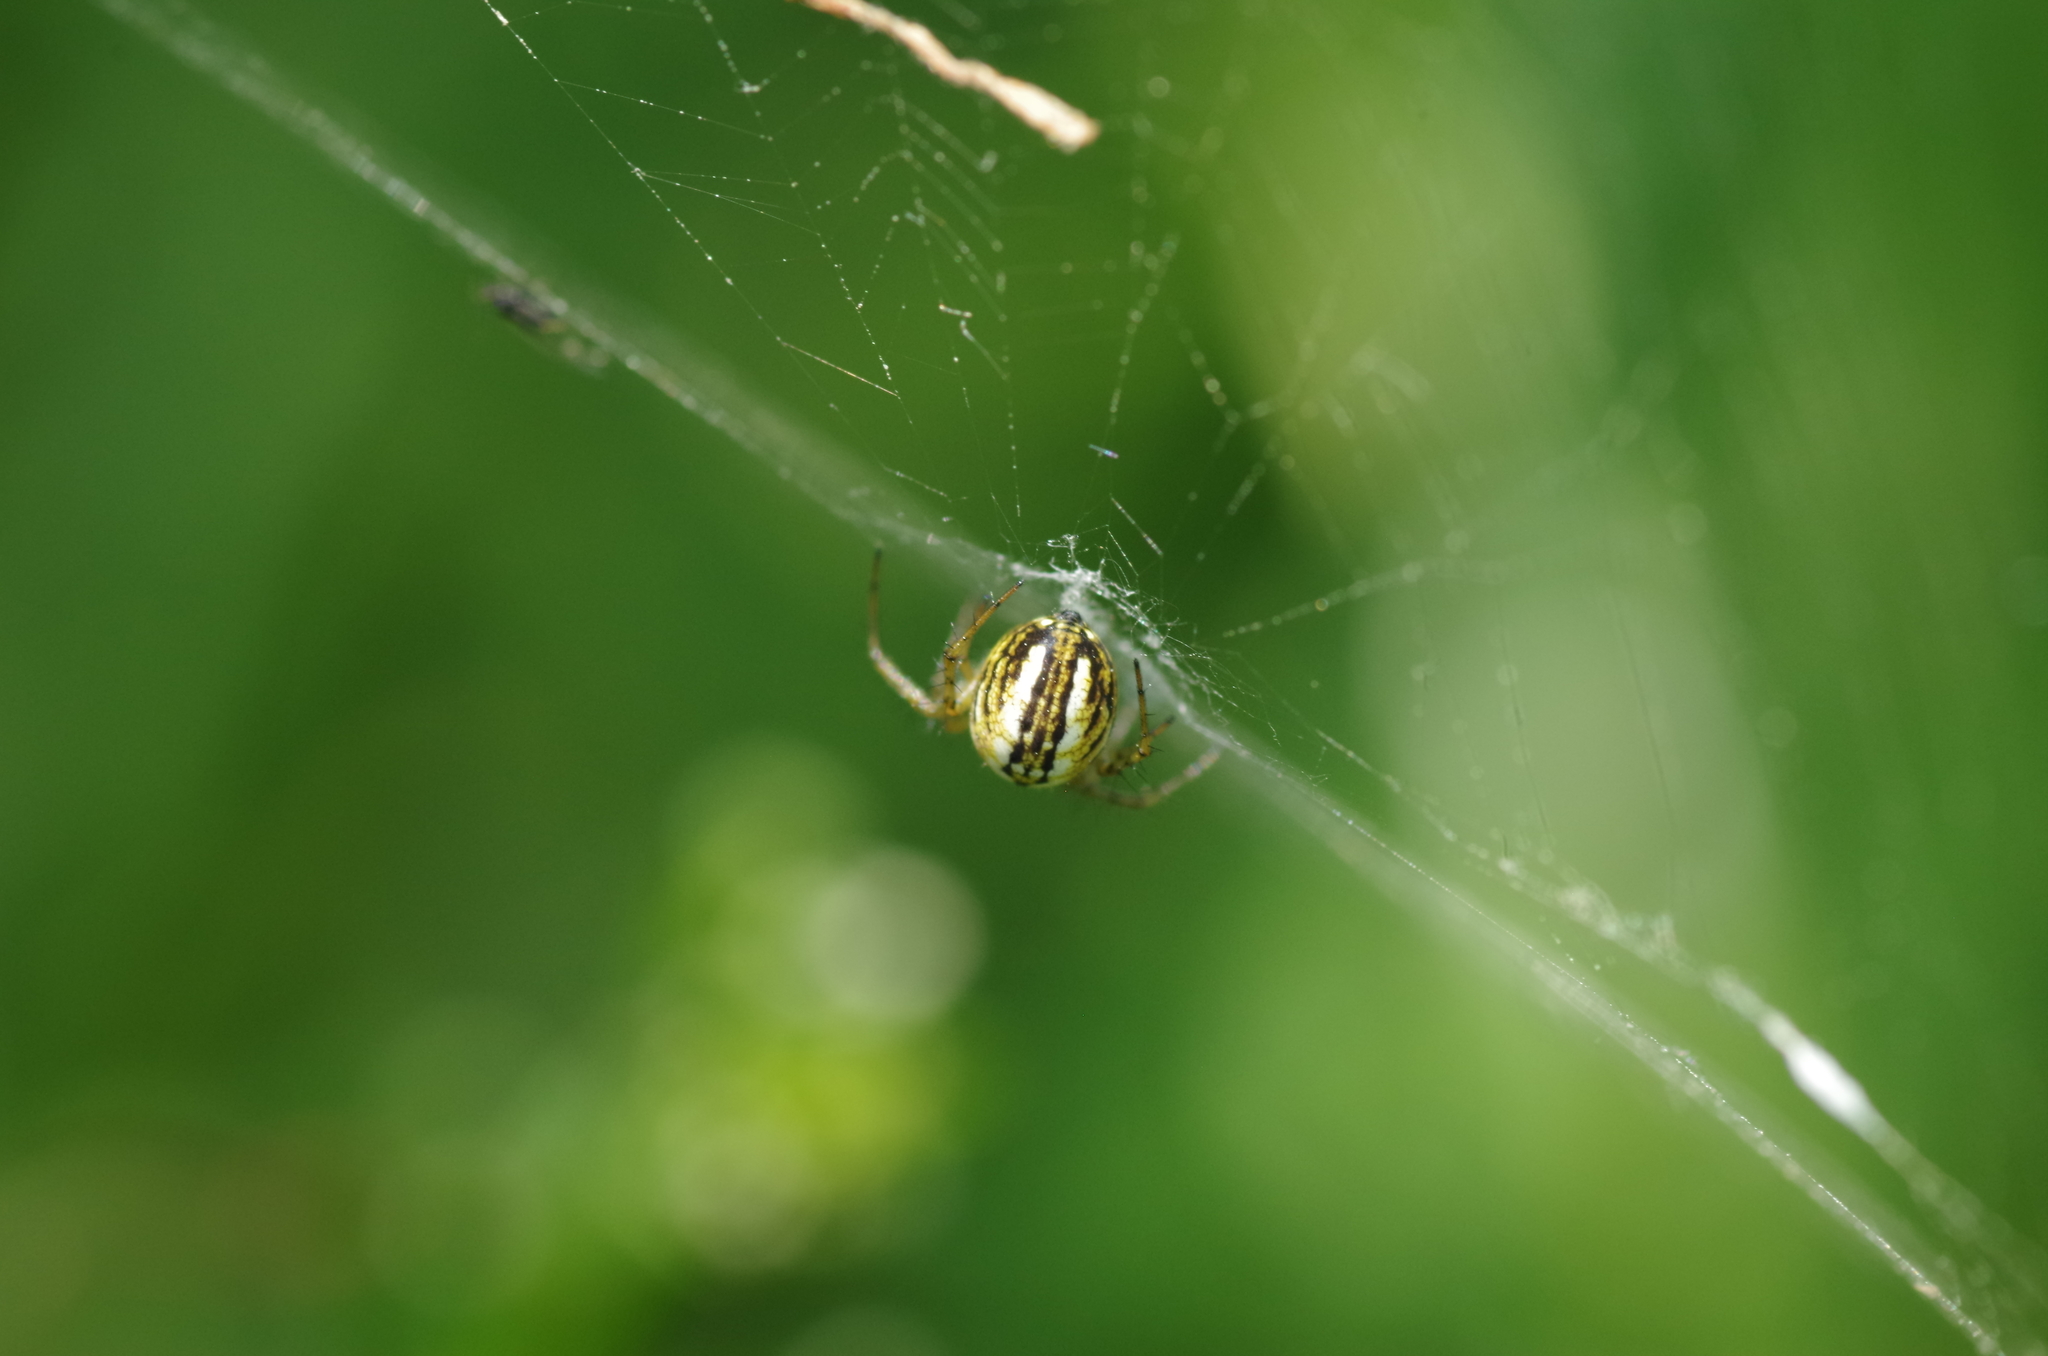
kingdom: Animalia
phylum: Arthropoda
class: Arachnida
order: Araneae
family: Araneidae
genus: Mangora
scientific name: Mangora acalypha
